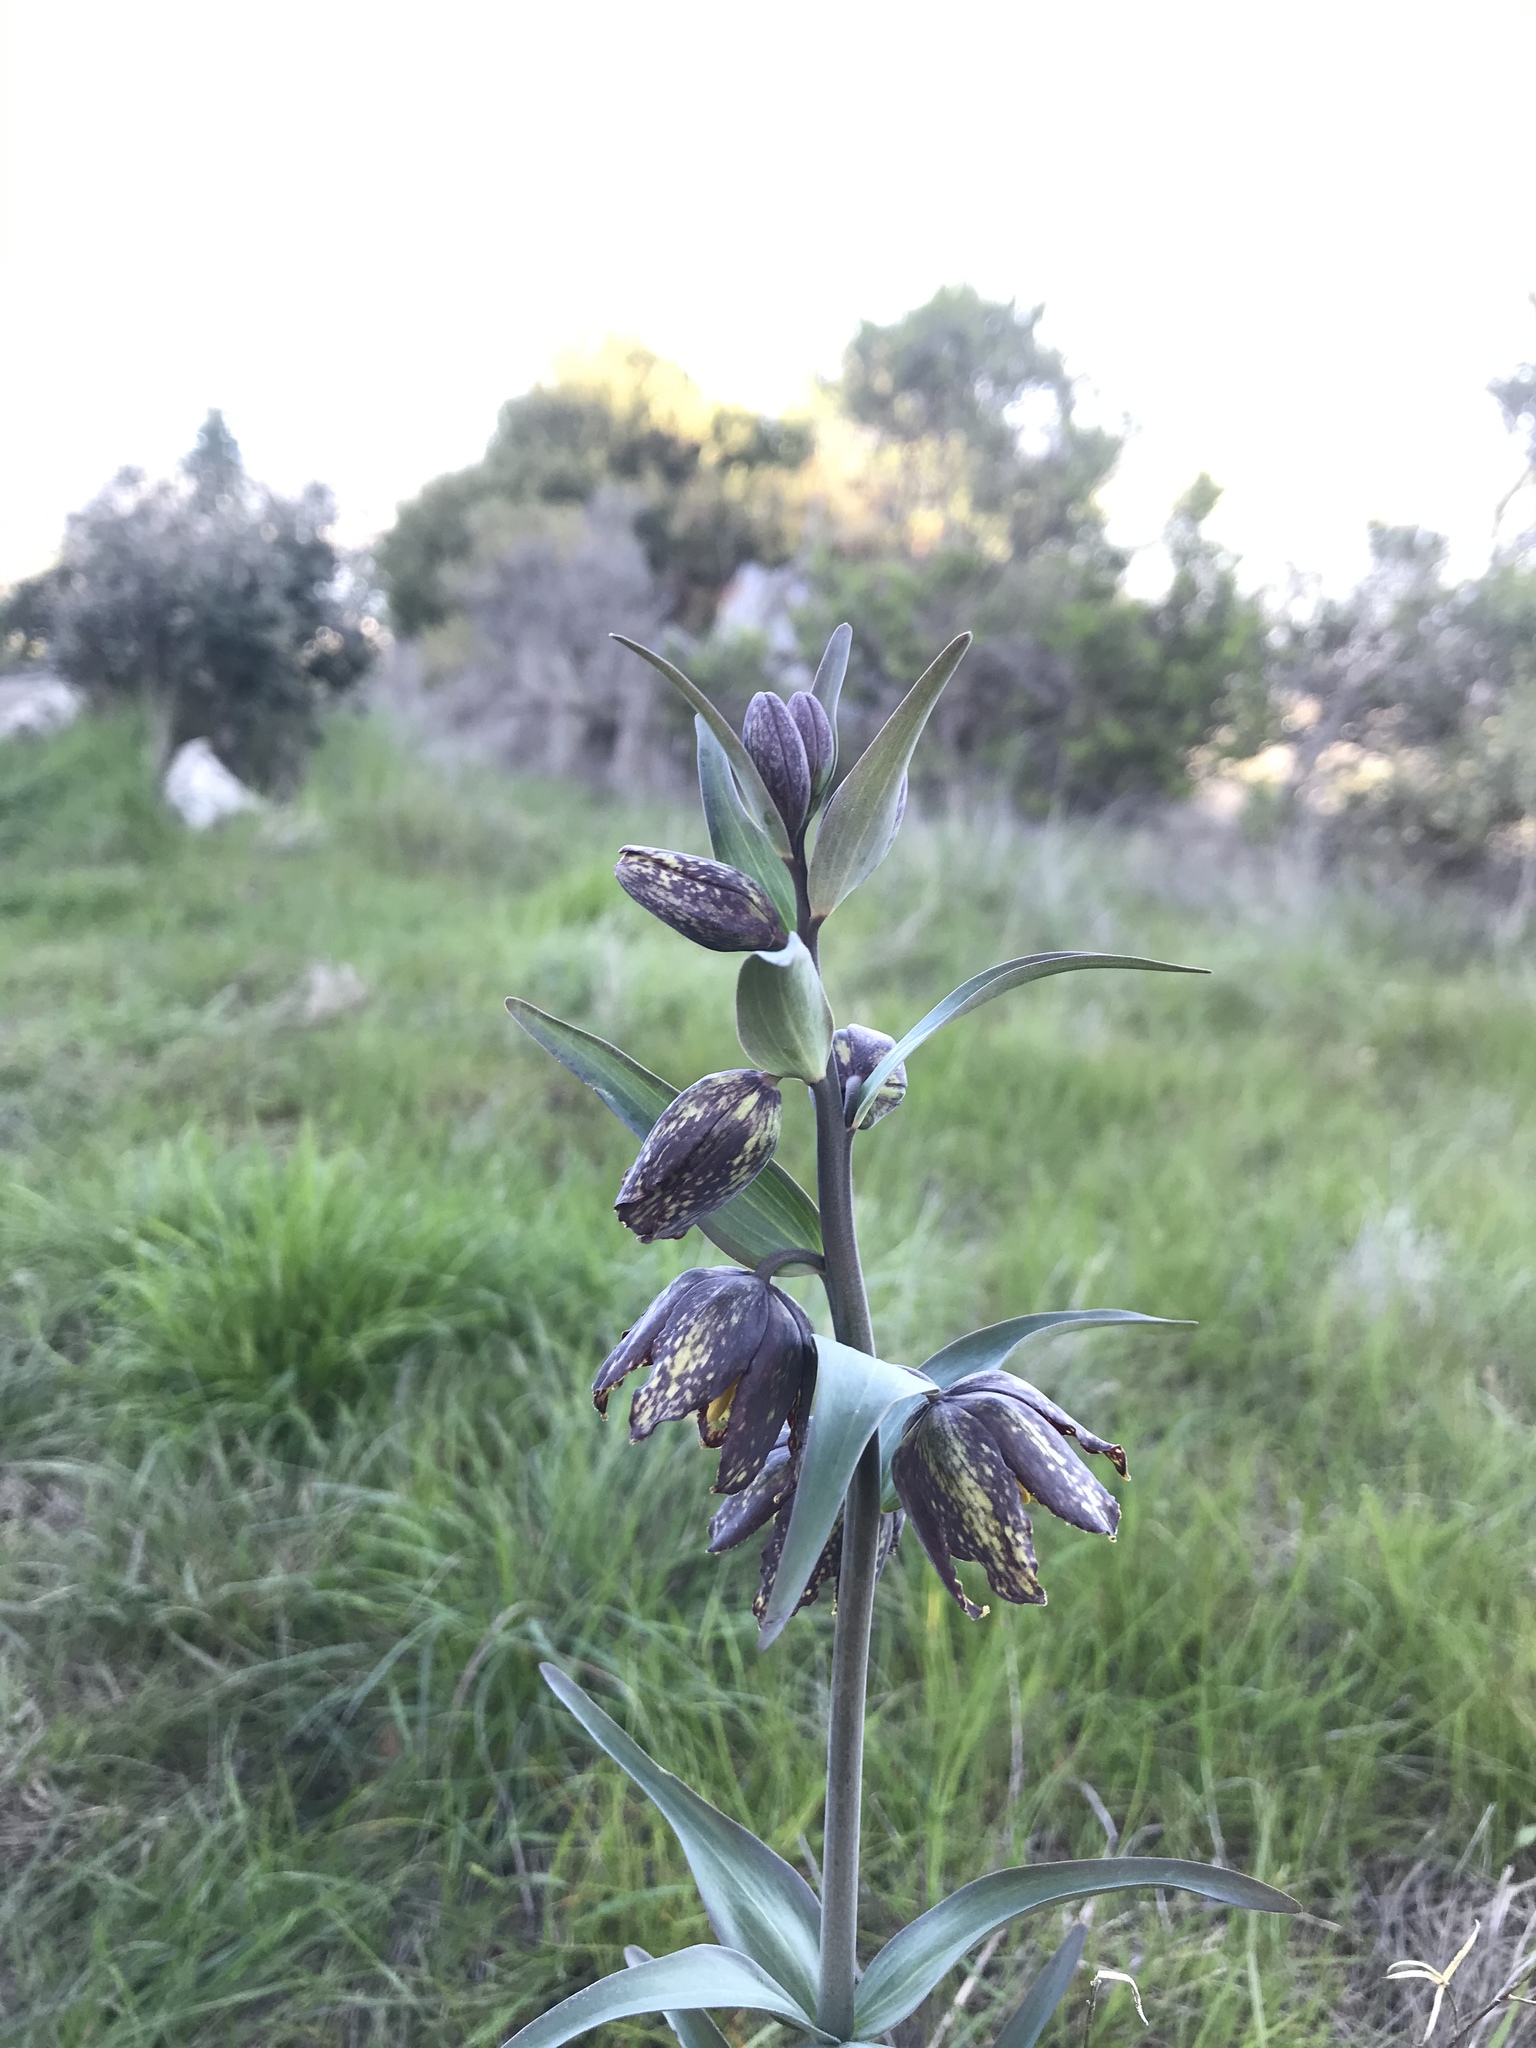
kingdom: Plantae
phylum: Tracheophyta
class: Liliopsida
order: Liliales
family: Liliaceae
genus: Fritillaria
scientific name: Fritillaria affinis
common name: Ojai fritillary
